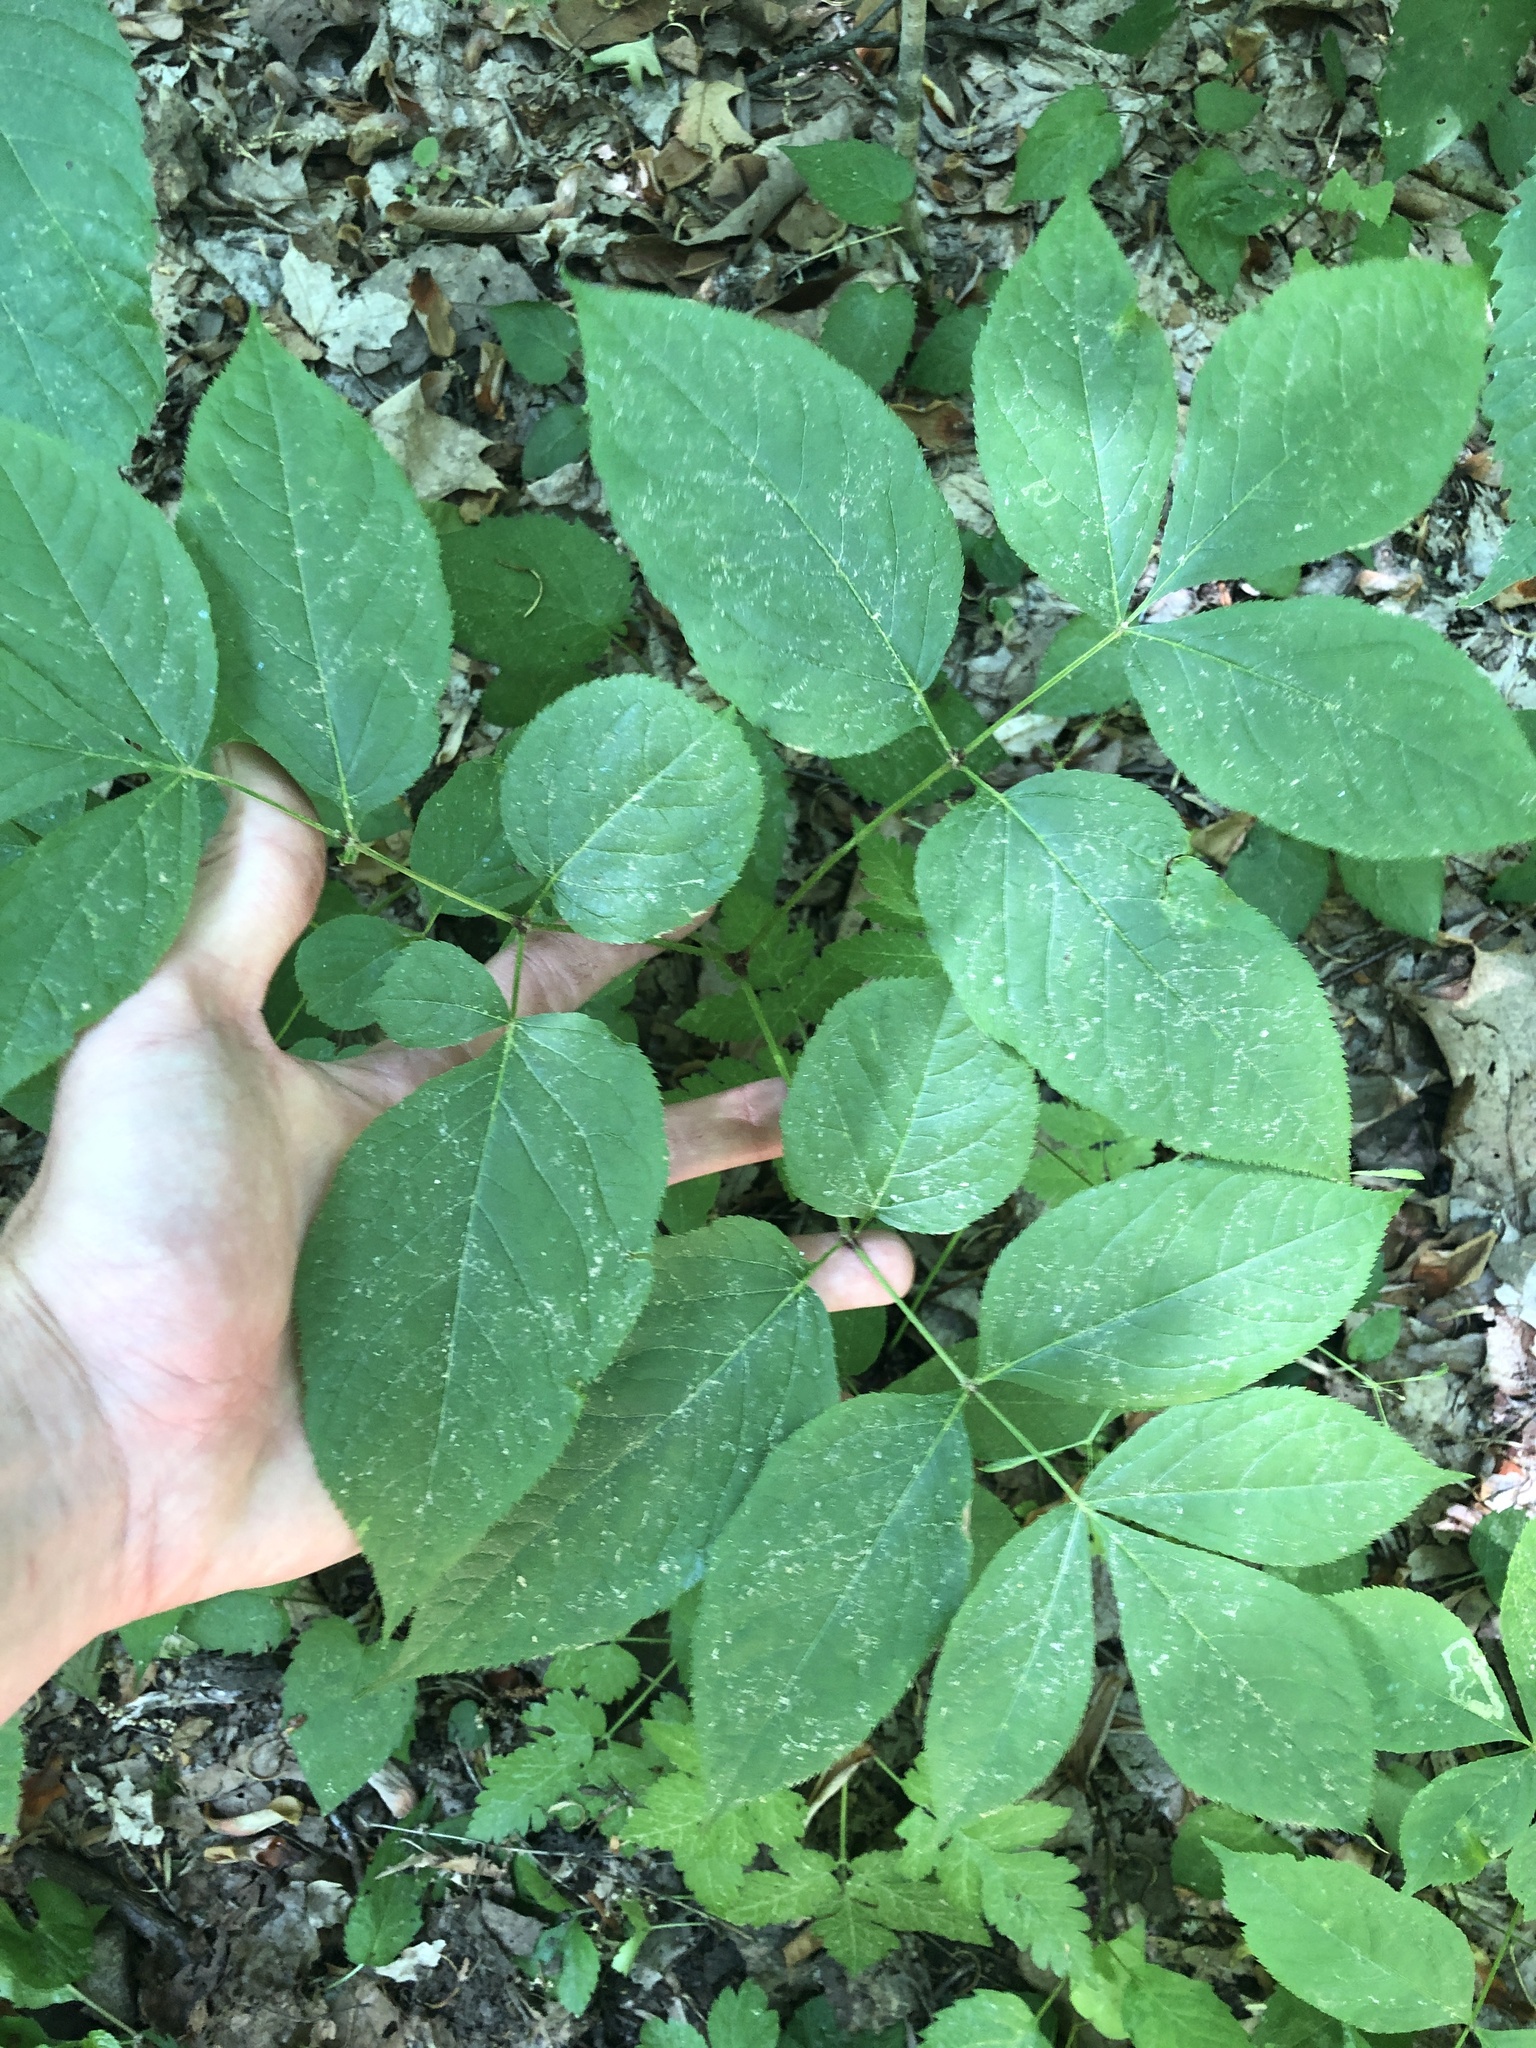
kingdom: Plantae
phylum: Tracheophyta
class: Magnoliopsida
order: Apiales
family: Araliaceae
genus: Aralia
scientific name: Aralia nudicaulis
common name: Wild sarsaparilla
